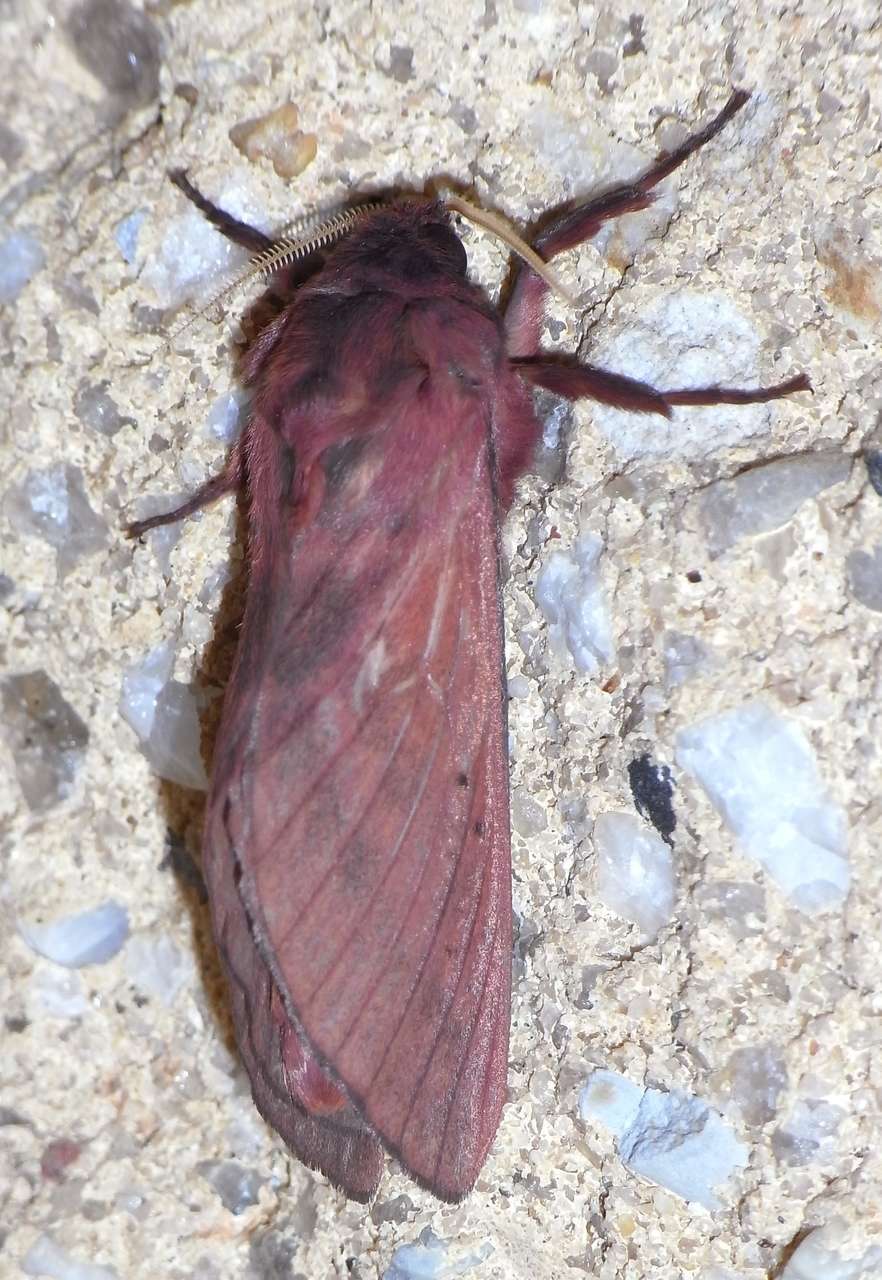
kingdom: Animalia
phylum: Arthropoda
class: Insecta
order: Lepidoptera
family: Hepialidae
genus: Oxycanus
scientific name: Oxycanus rufescens
